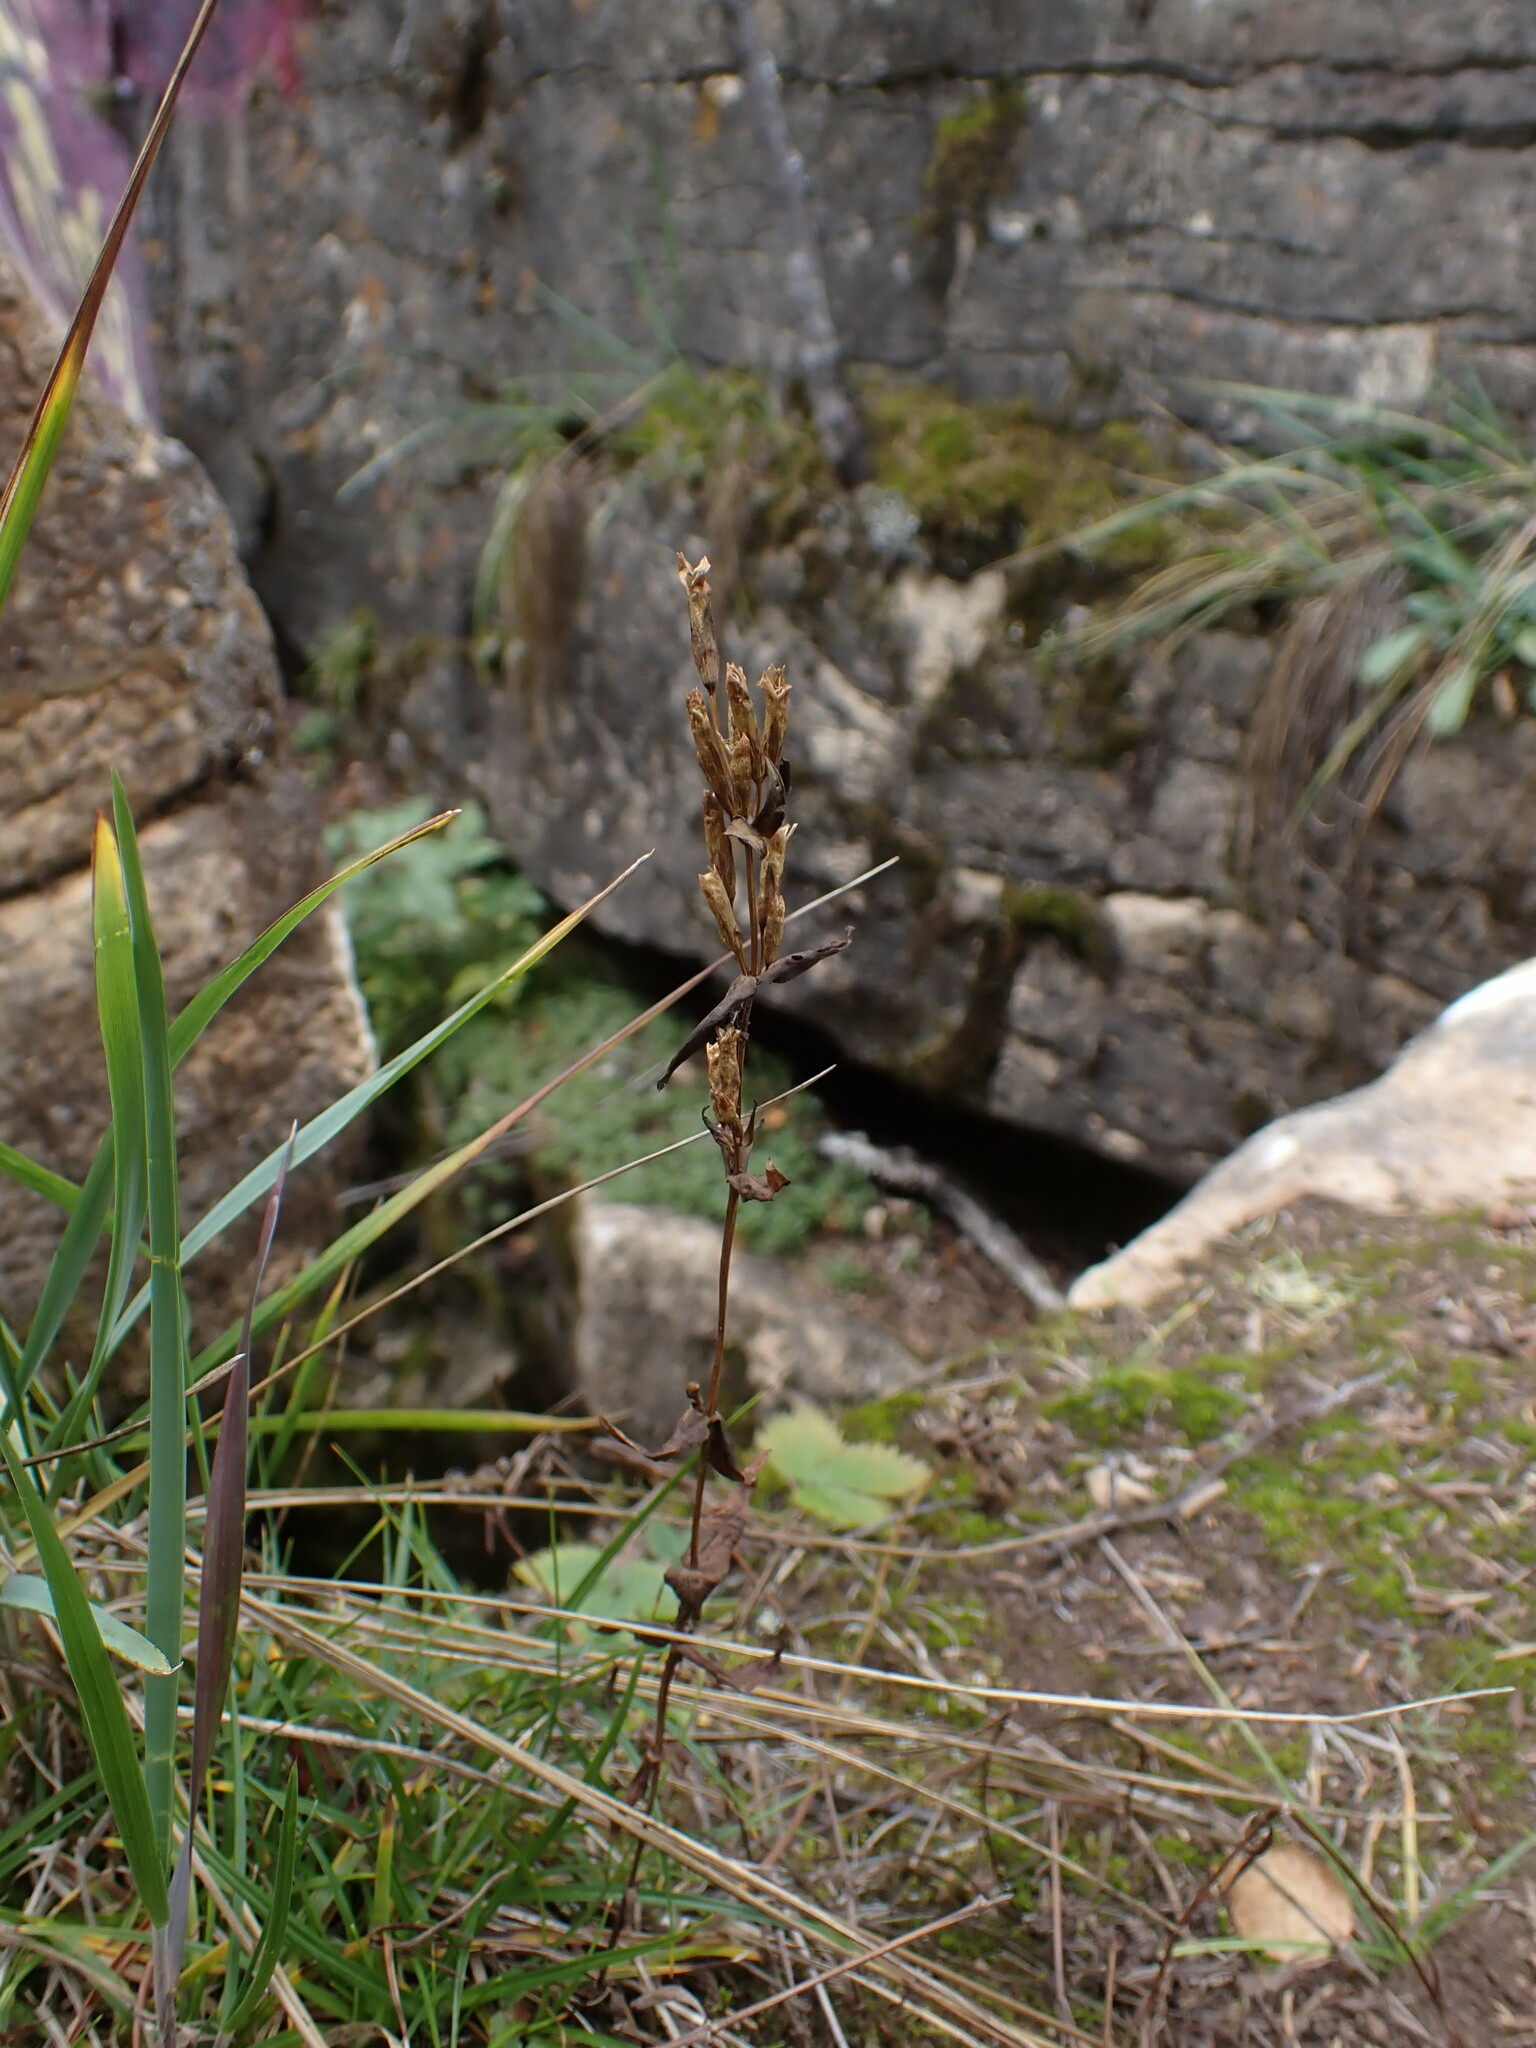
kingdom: Plantae
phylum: Tracheophyta
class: Magnoliopsida
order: Gentianales
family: Gentianaceae
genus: Gentianella
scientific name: Gentianella amarella
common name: Autumn gentian
